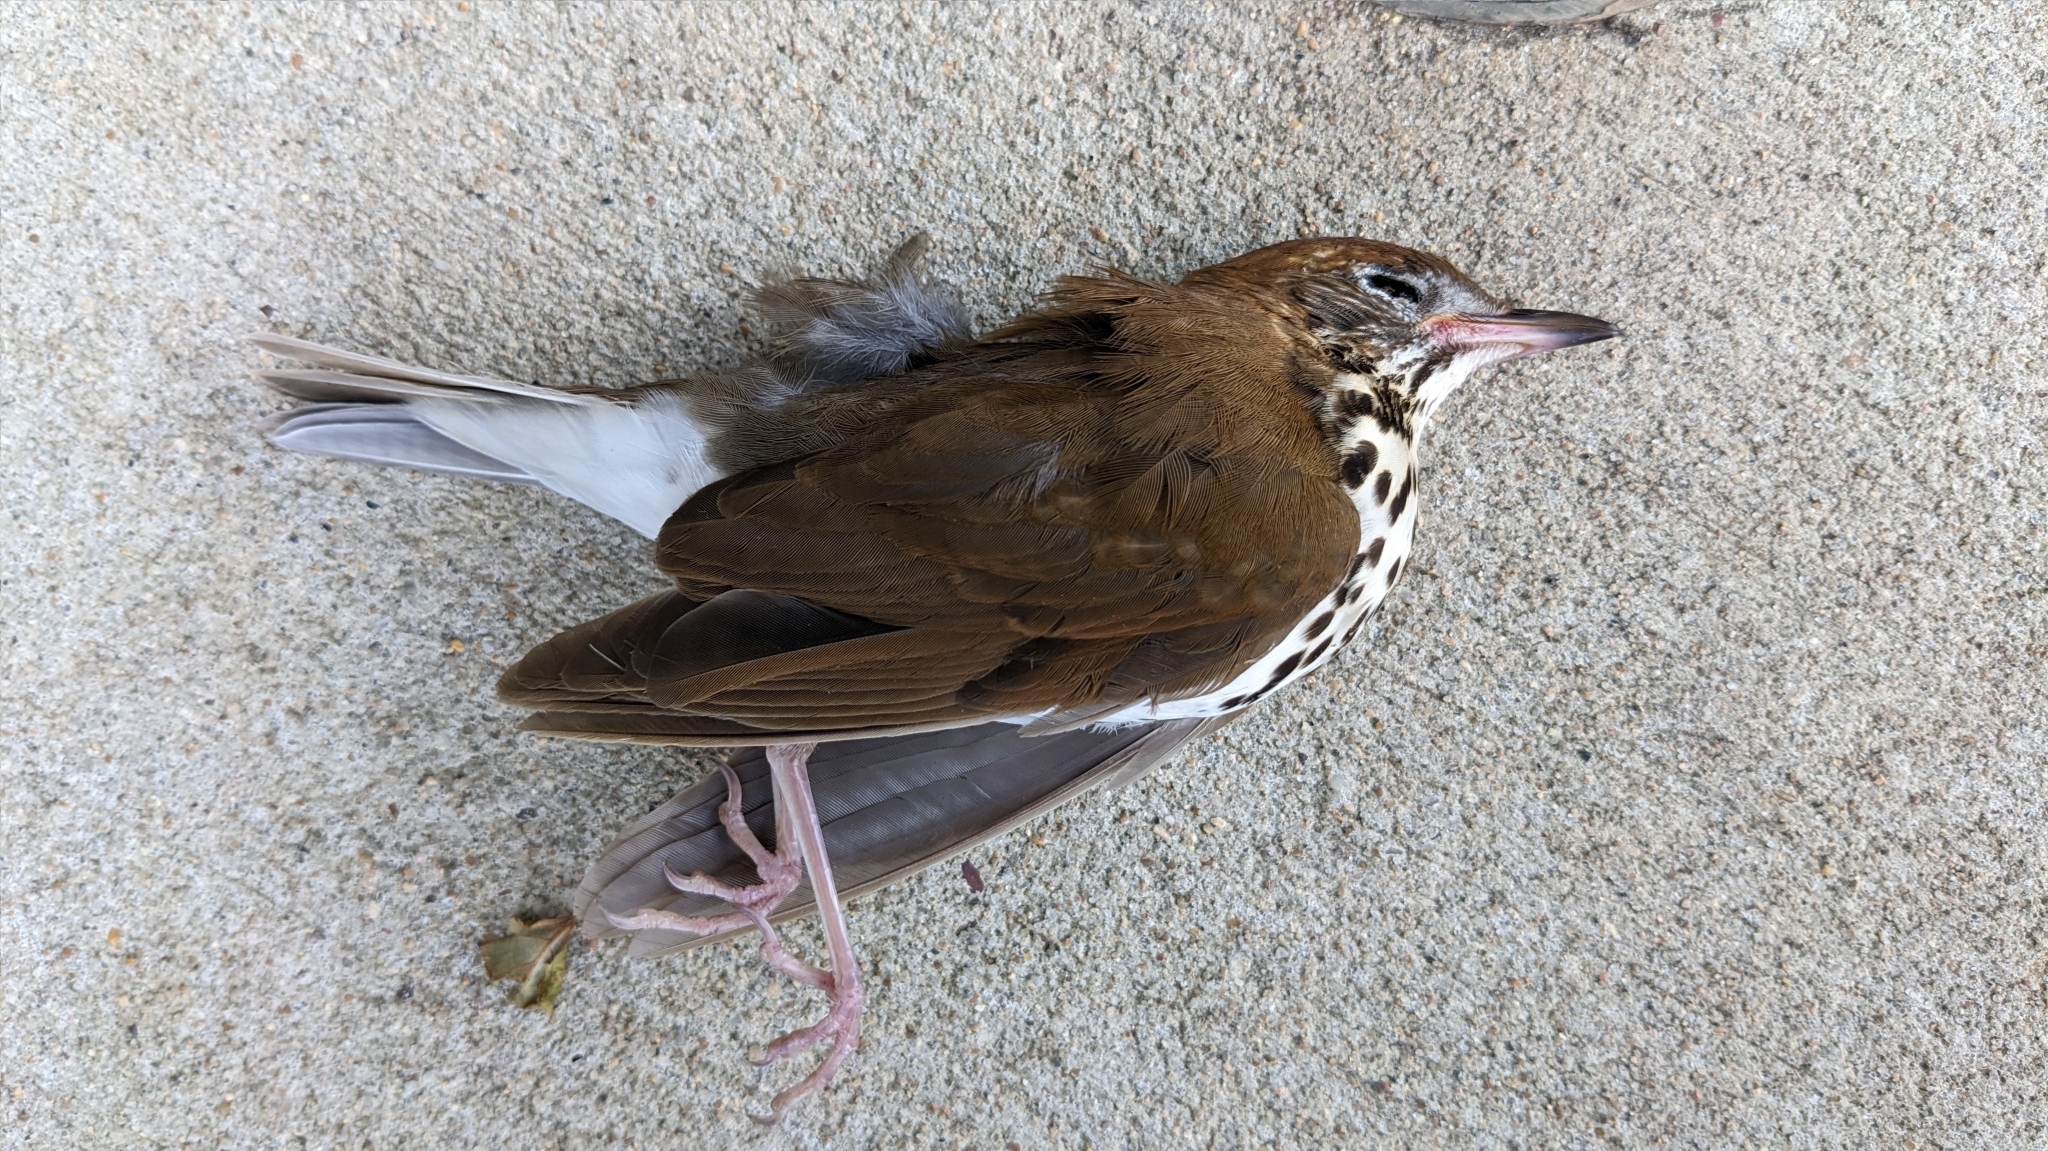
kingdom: Animalia
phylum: Chordata
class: Aves
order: Passeriformes
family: Turdidae
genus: Hylocichla
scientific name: Hylocichla mustelina
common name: Wood thrush
